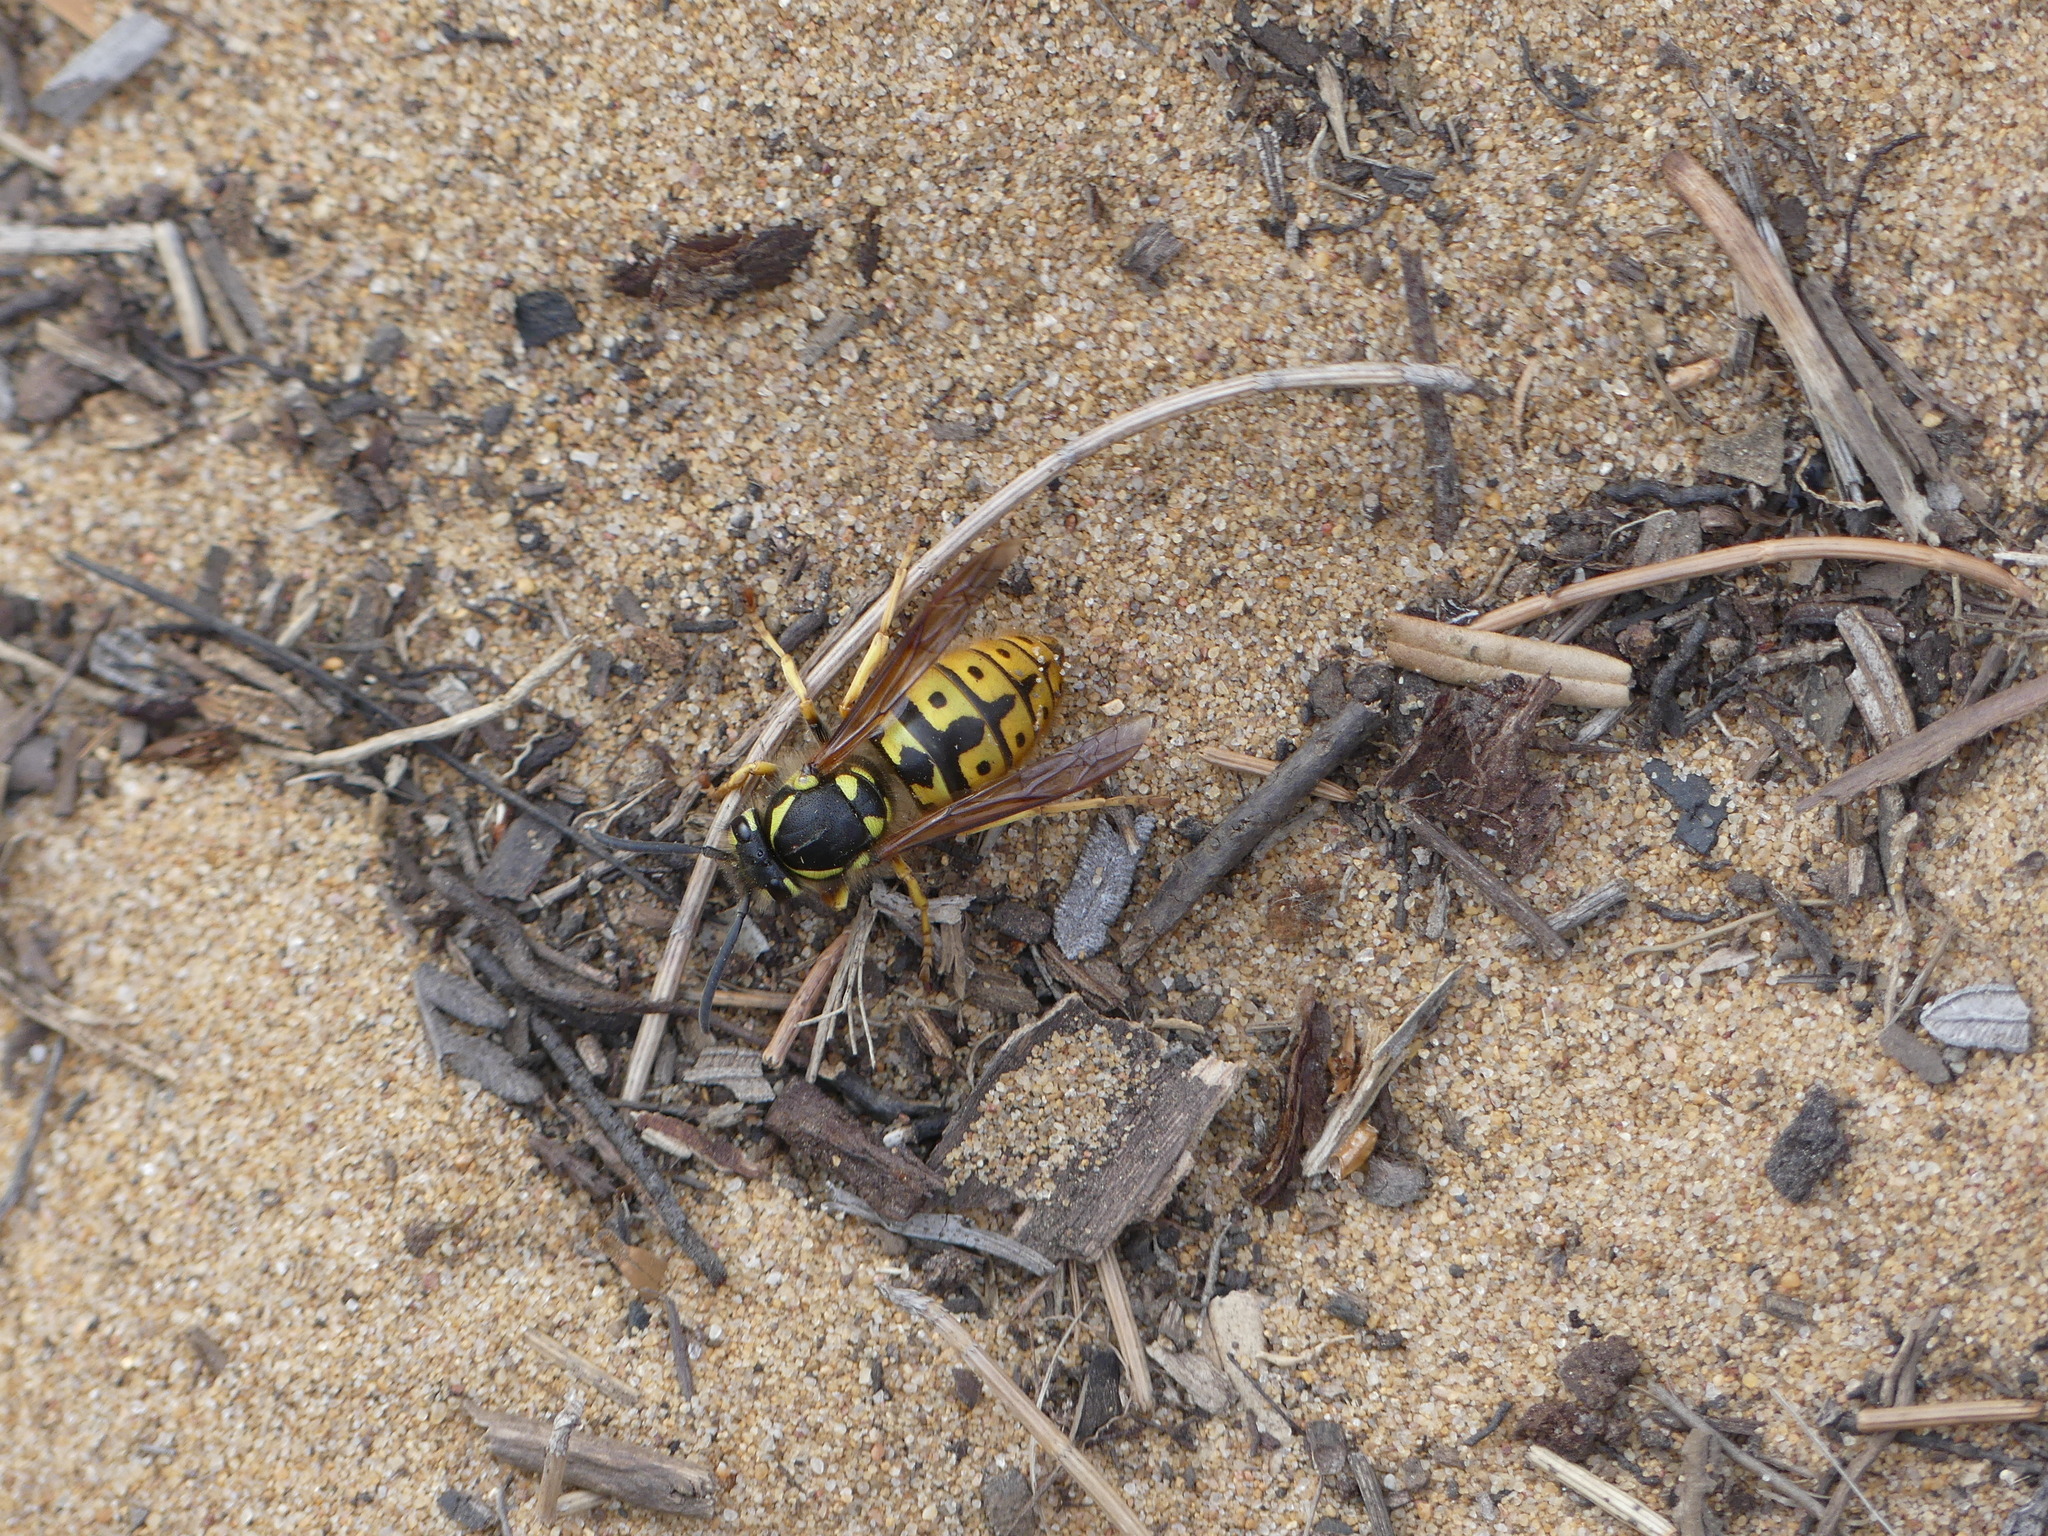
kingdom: Animalia
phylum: Arthropoda
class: Insecta
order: Hymenoptera
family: Vespidae
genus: Vespula
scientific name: Vespula germanica
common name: German wasp
